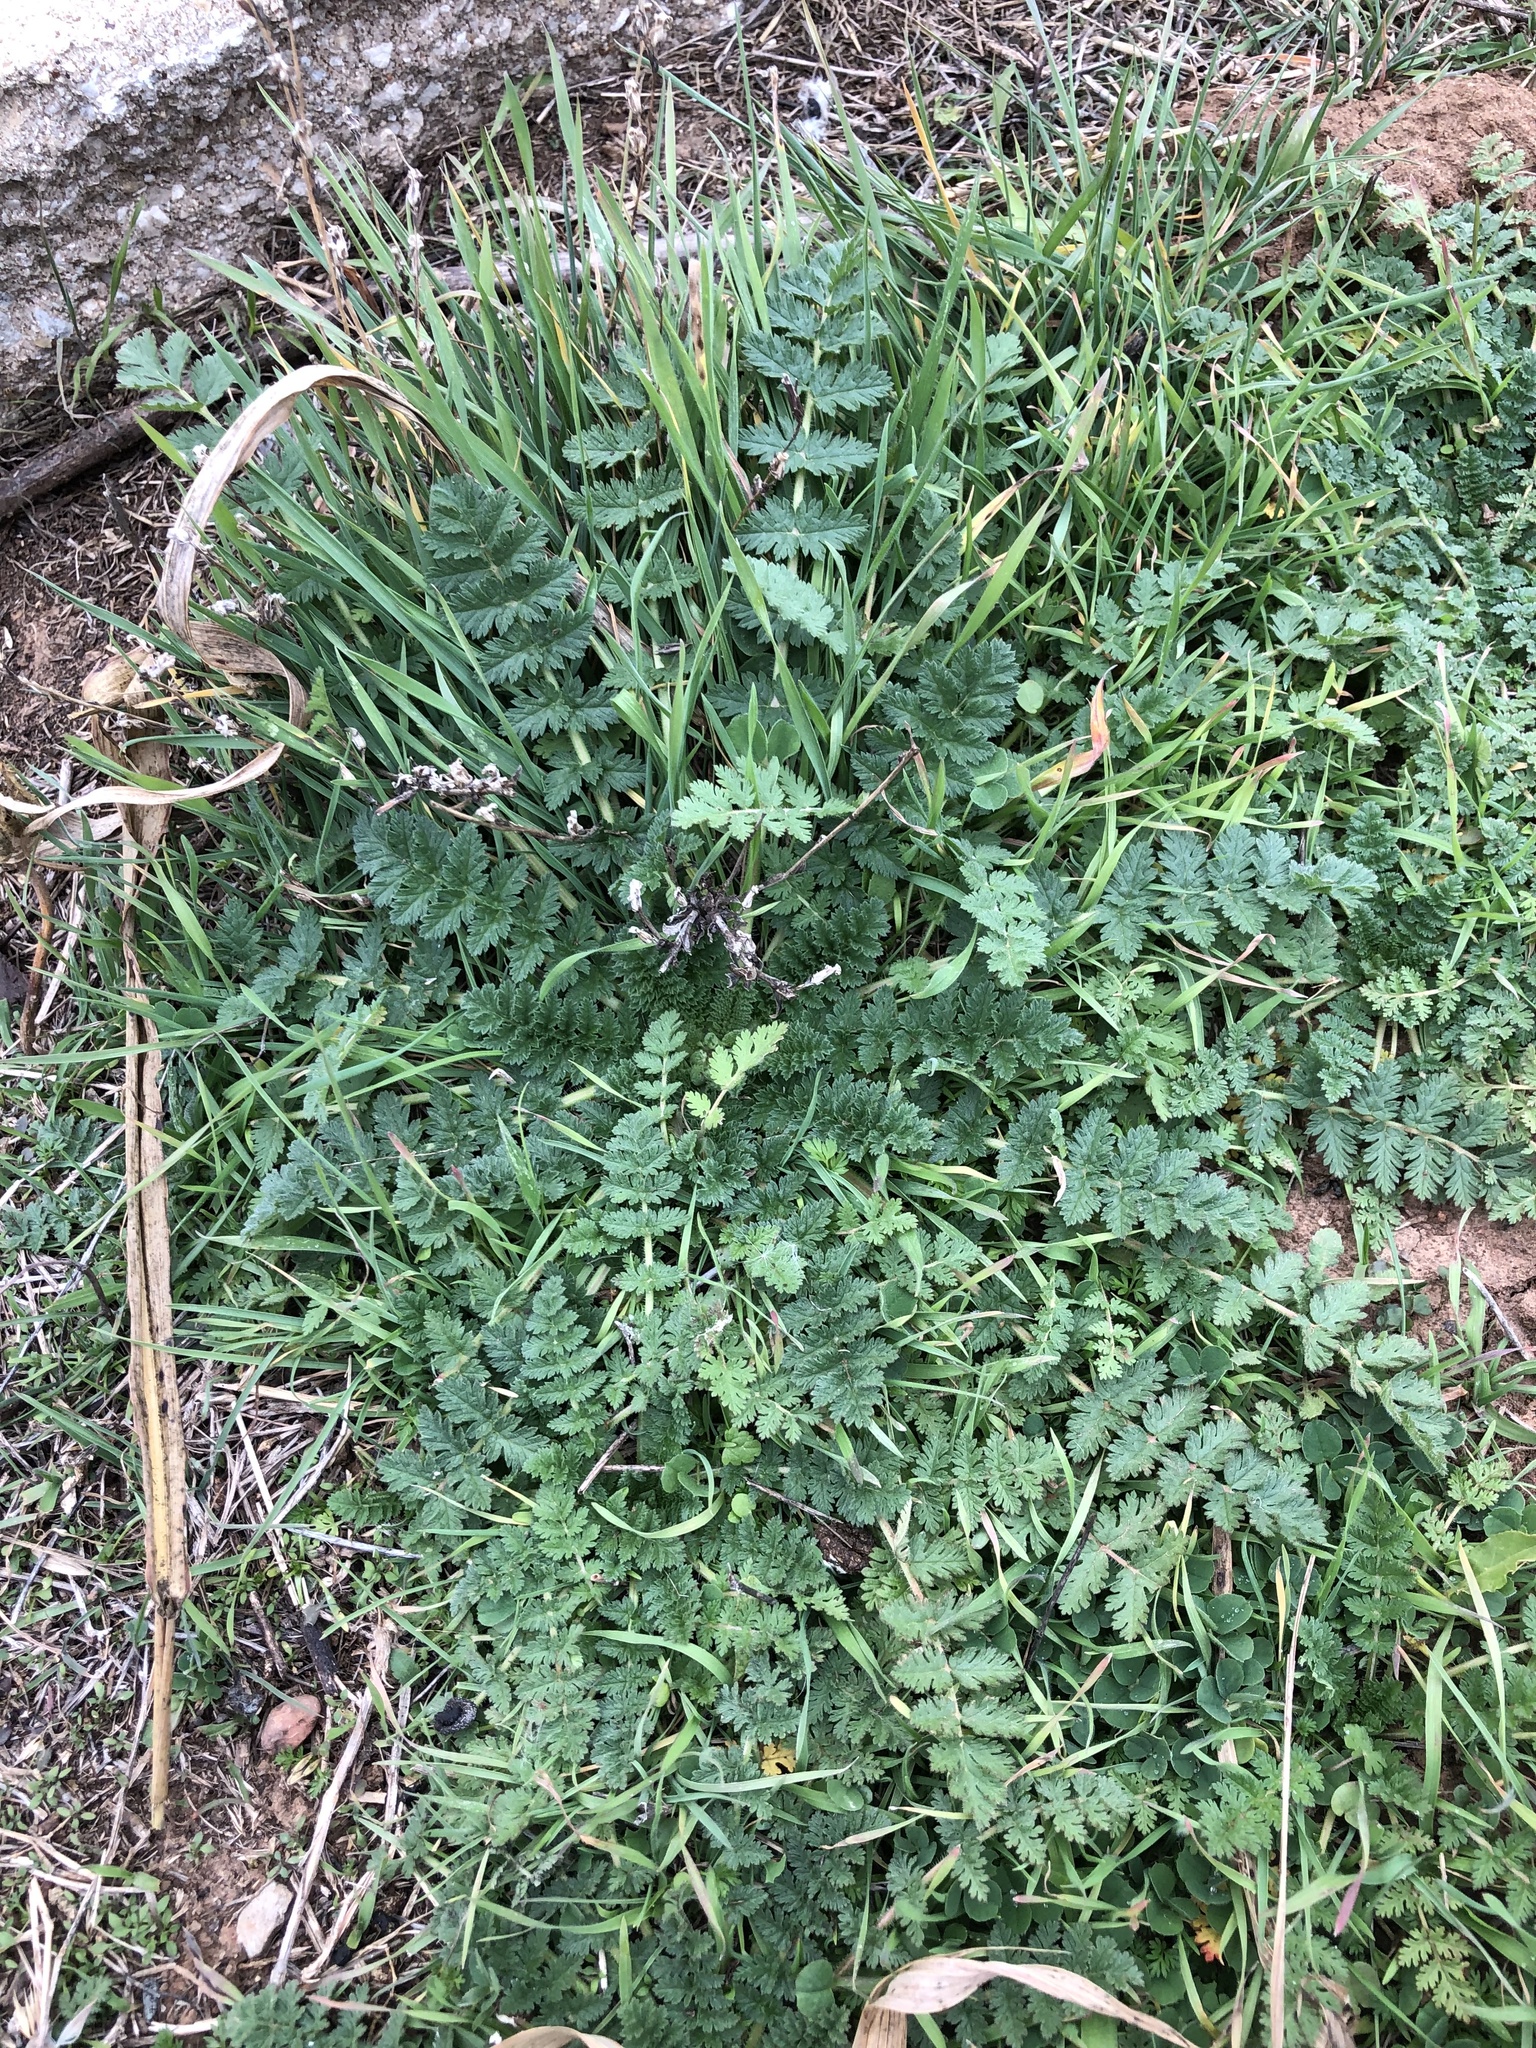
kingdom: Plantae
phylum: Tracheophyta
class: Magnoliopsida
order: Geraniales
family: Geraniaceae
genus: Erodium
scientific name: Erodium cicutarium
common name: Common stork's-bill
